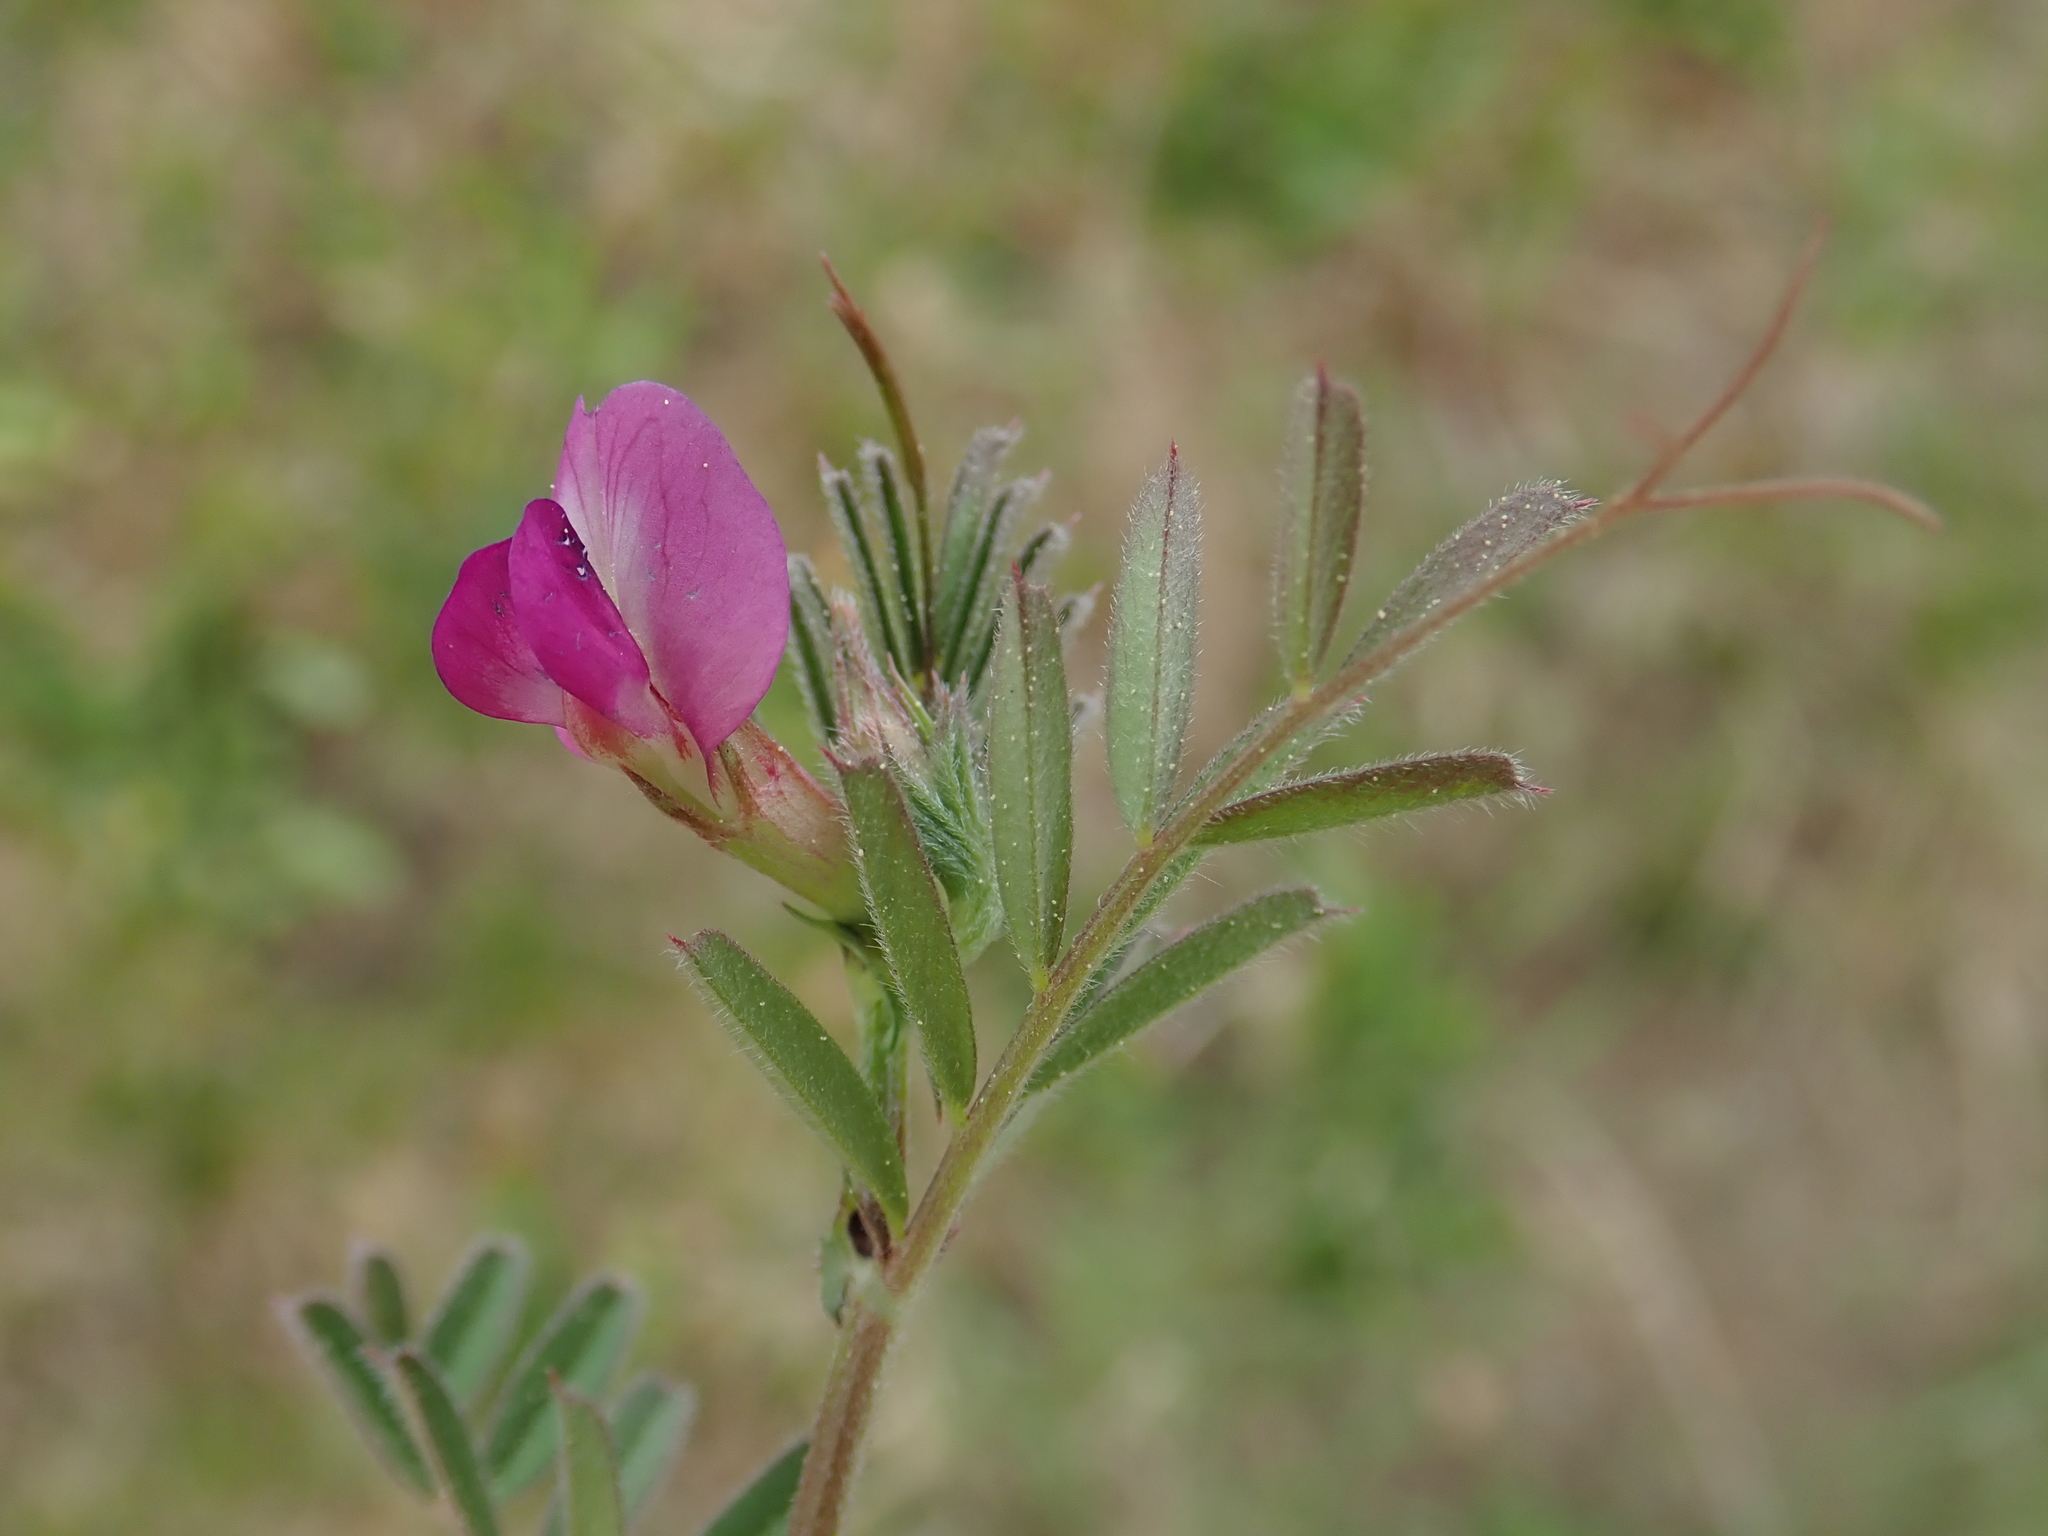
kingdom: Plantae
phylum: Tracheophyta
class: Magnoliopsida
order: Fabales
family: Fabaceae
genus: Vicia
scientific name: Vicia sativa
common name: Garden vetch
